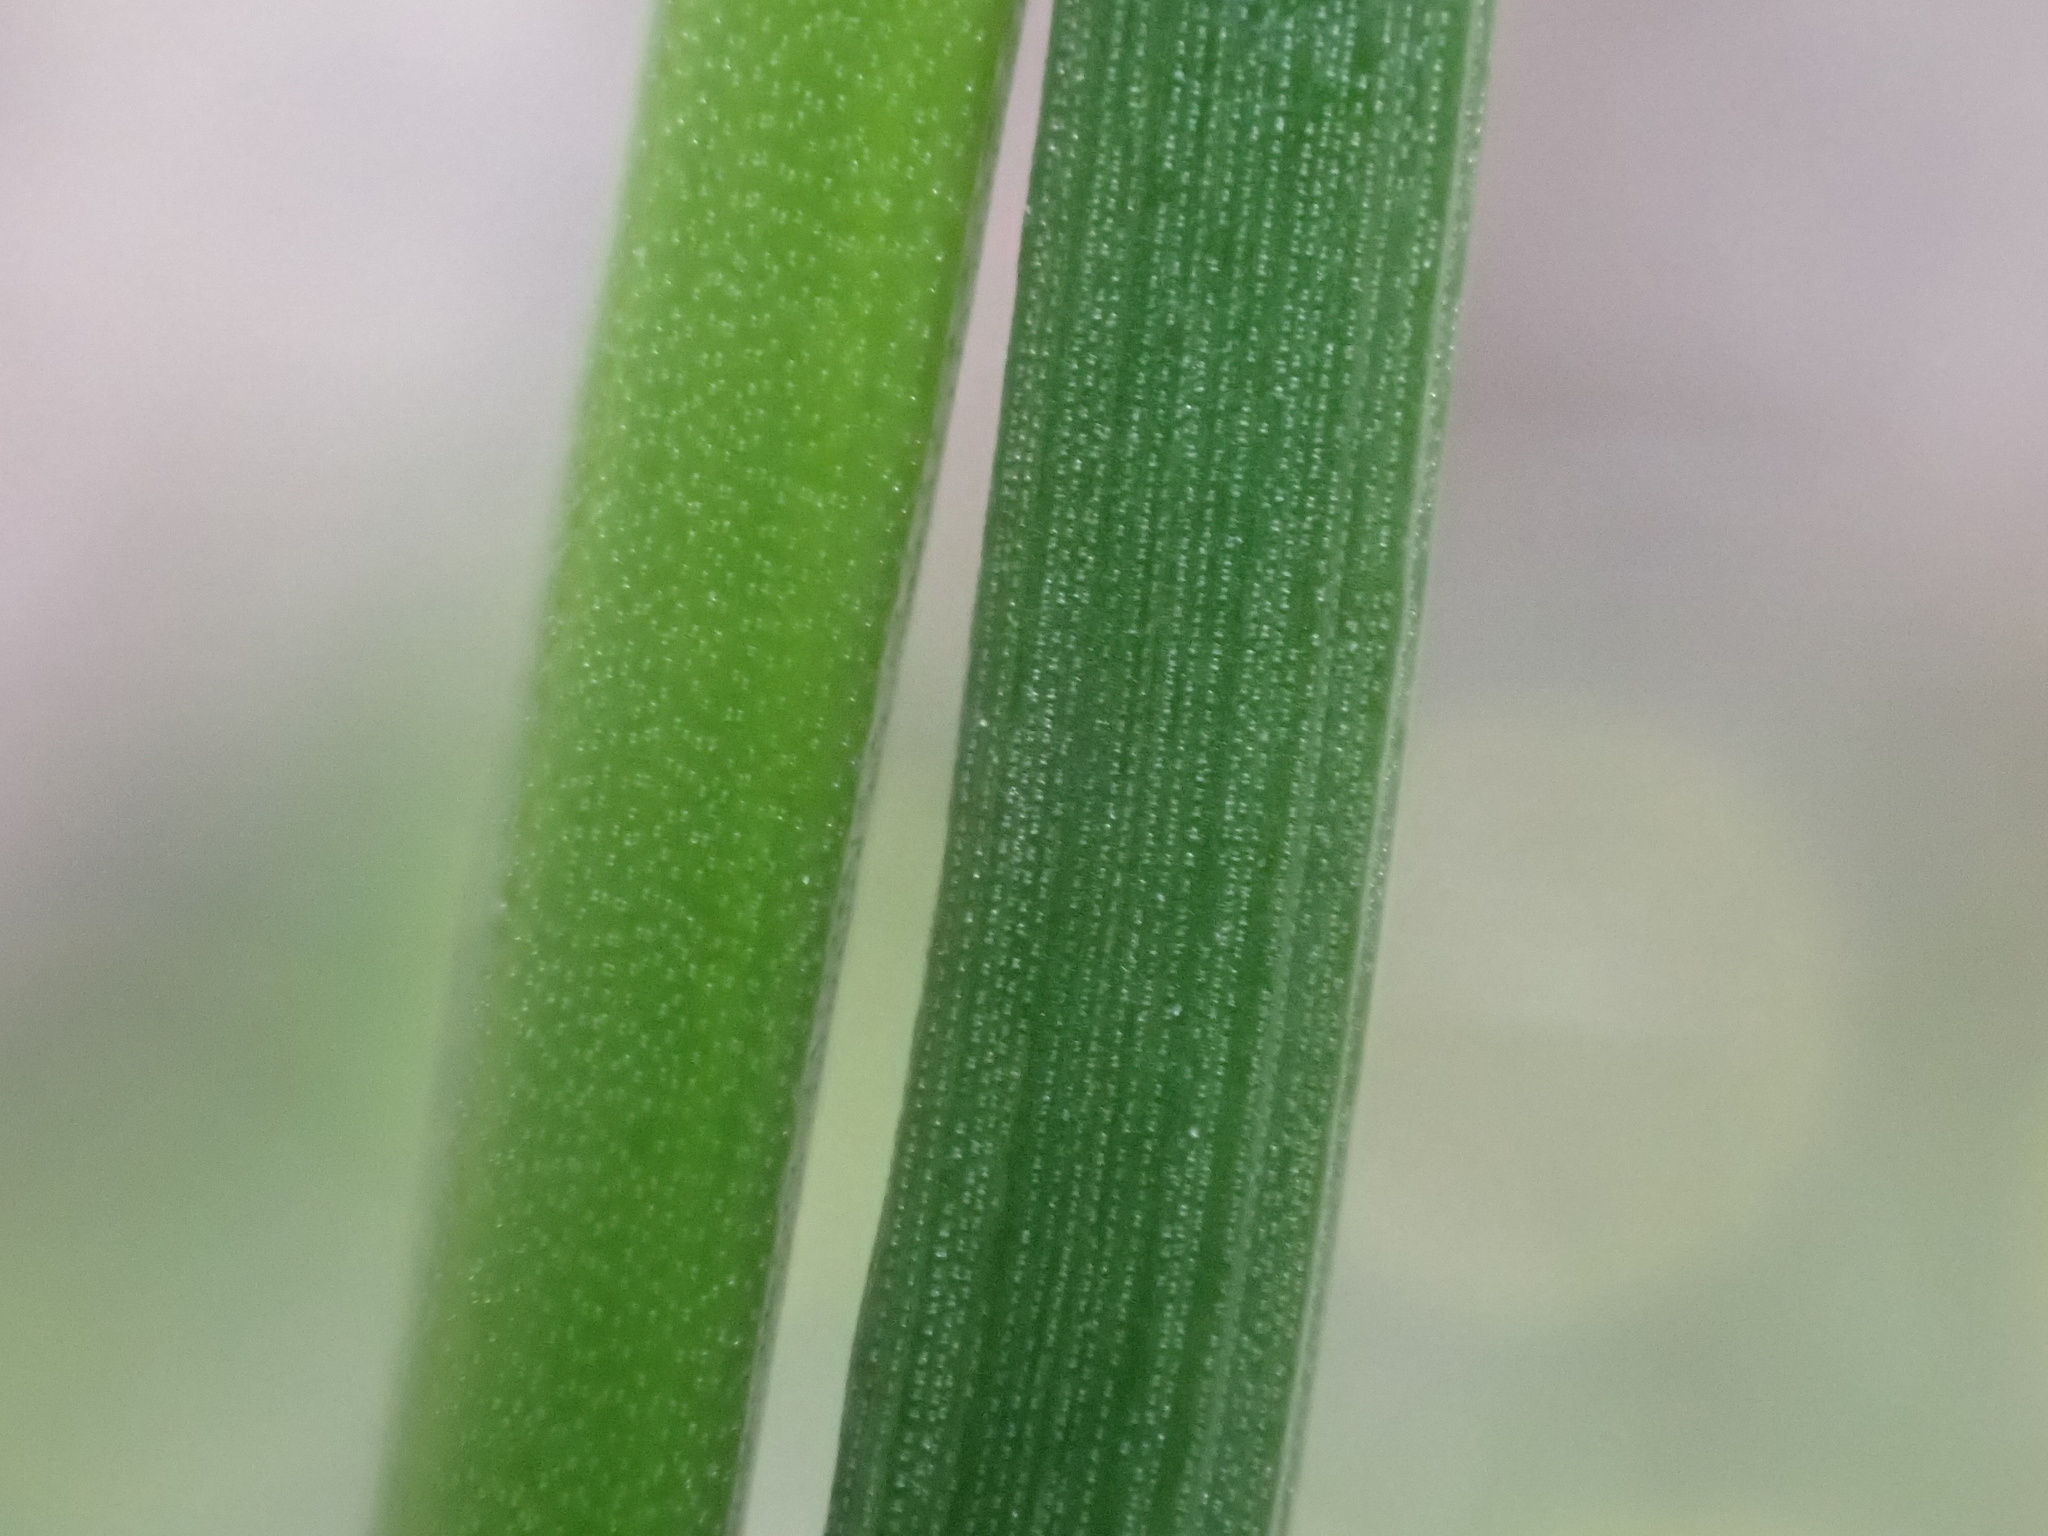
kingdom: Plantae
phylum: Tracheophyta
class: Liliopsida
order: Poales
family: Juncaceae
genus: Juncus
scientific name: Juncus articulatus
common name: Jointed rush
